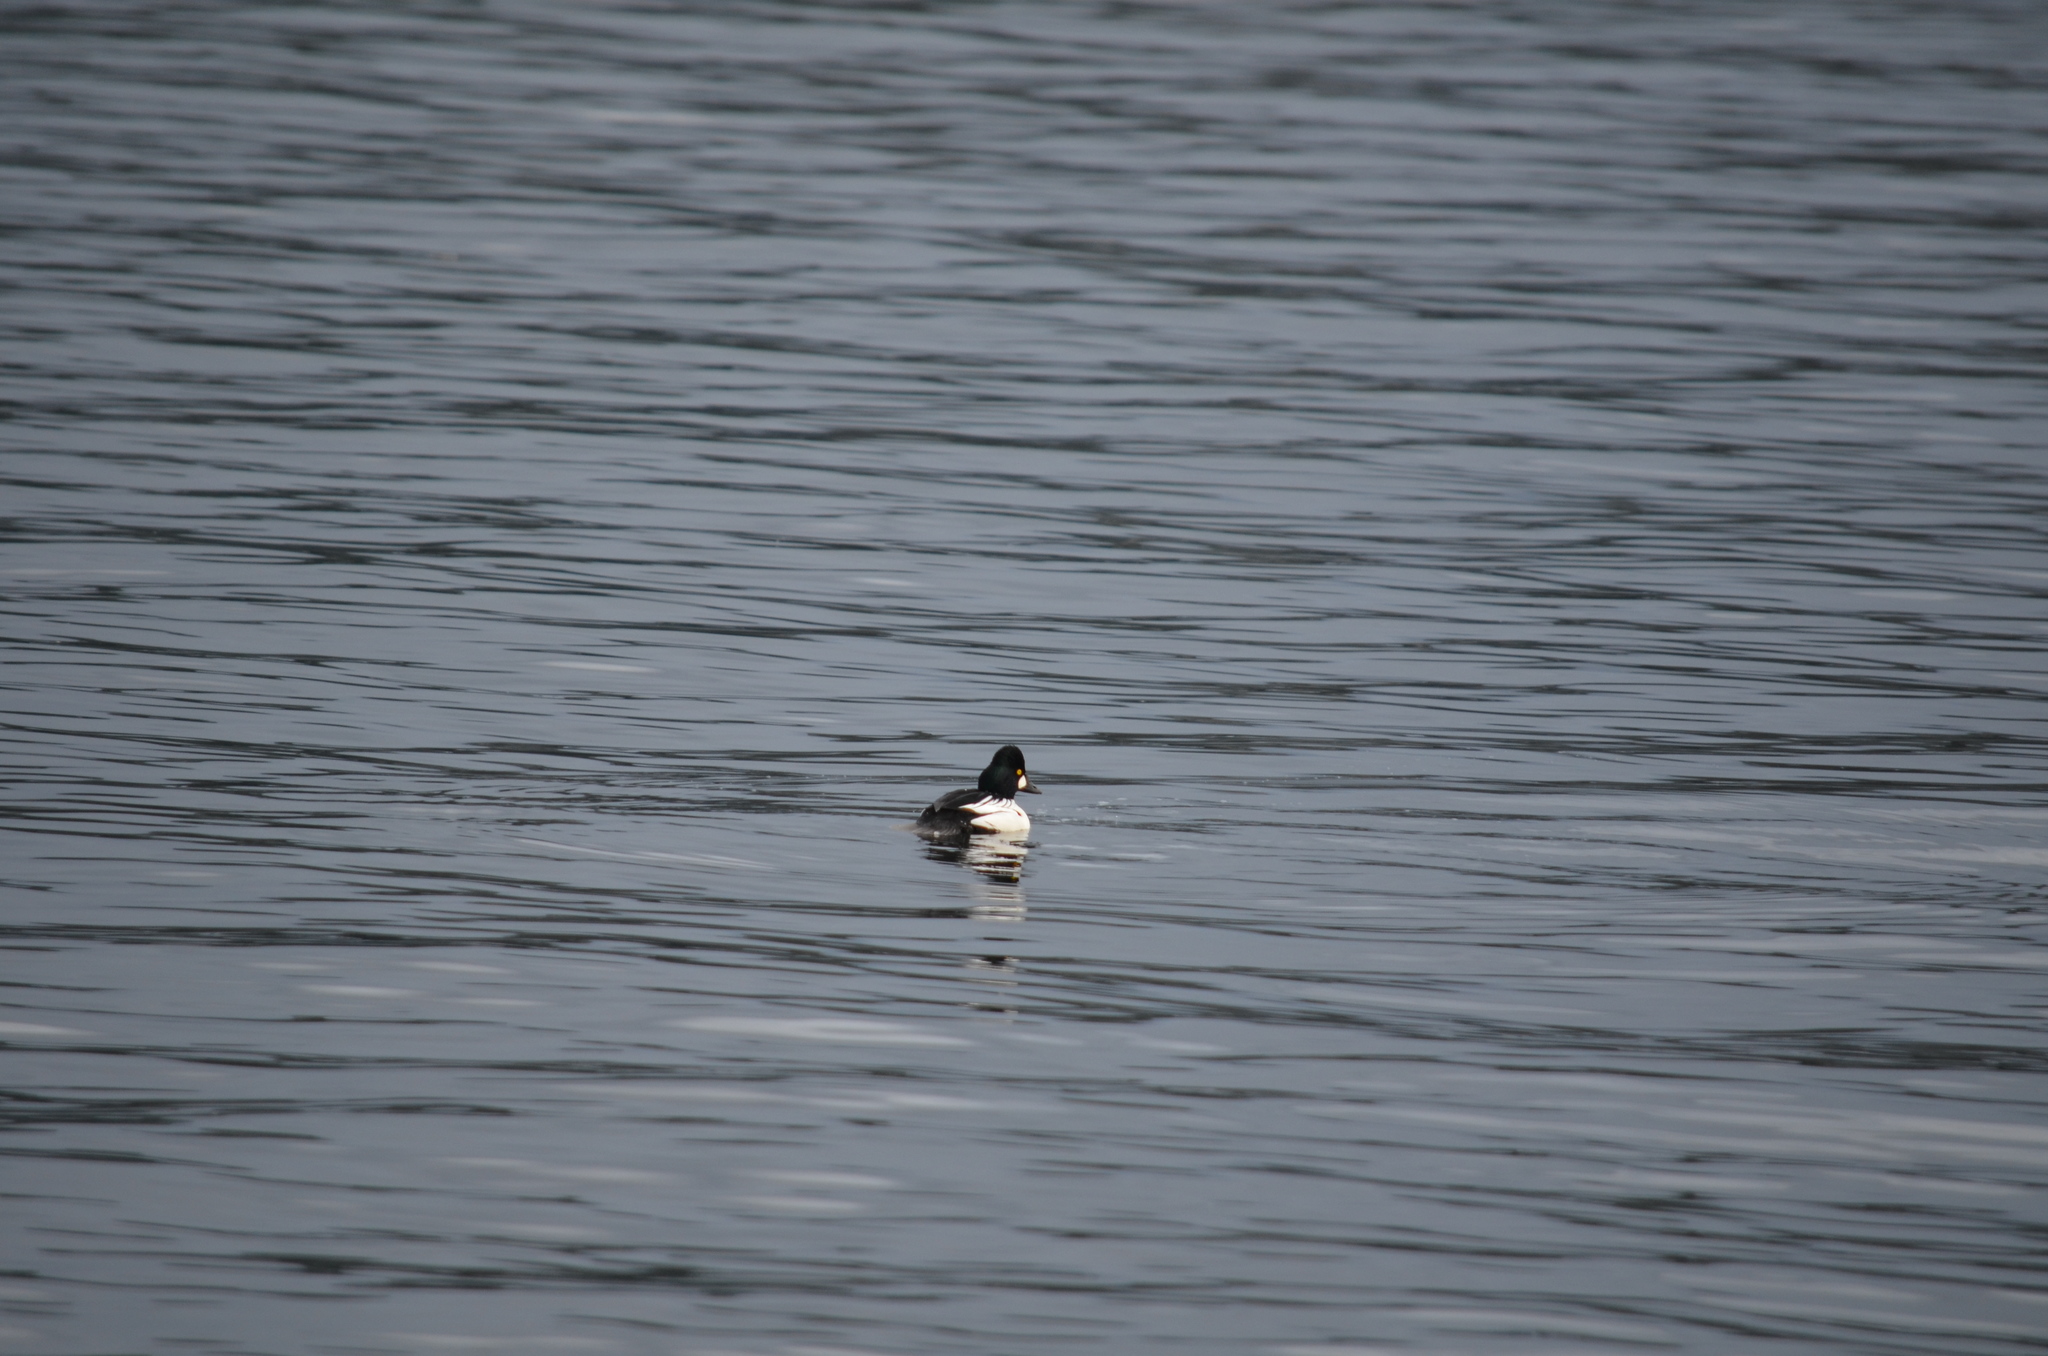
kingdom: Animalia
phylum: Chordata
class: Aves
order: Anseriformes
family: Anatidae
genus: Bucephala
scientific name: Bucephala clangula
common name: Common goldeneye
